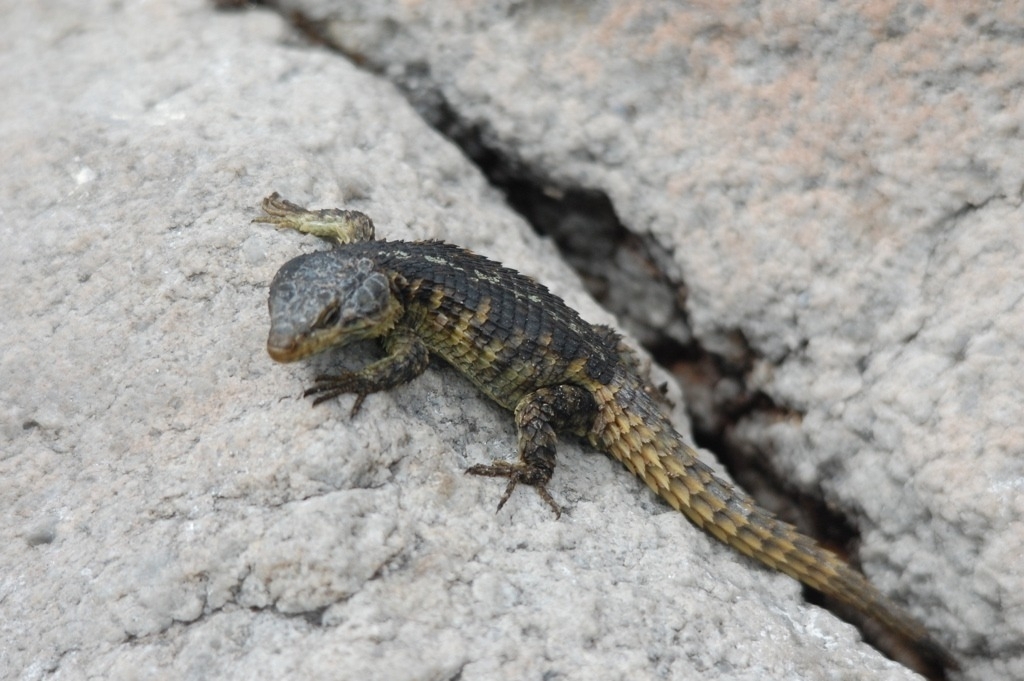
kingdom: Animalia
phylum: Chordata
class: Squamata
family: Cordylidae
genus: Cordylus
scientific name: Cordylus cordylus
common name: Cape girdled lizard
